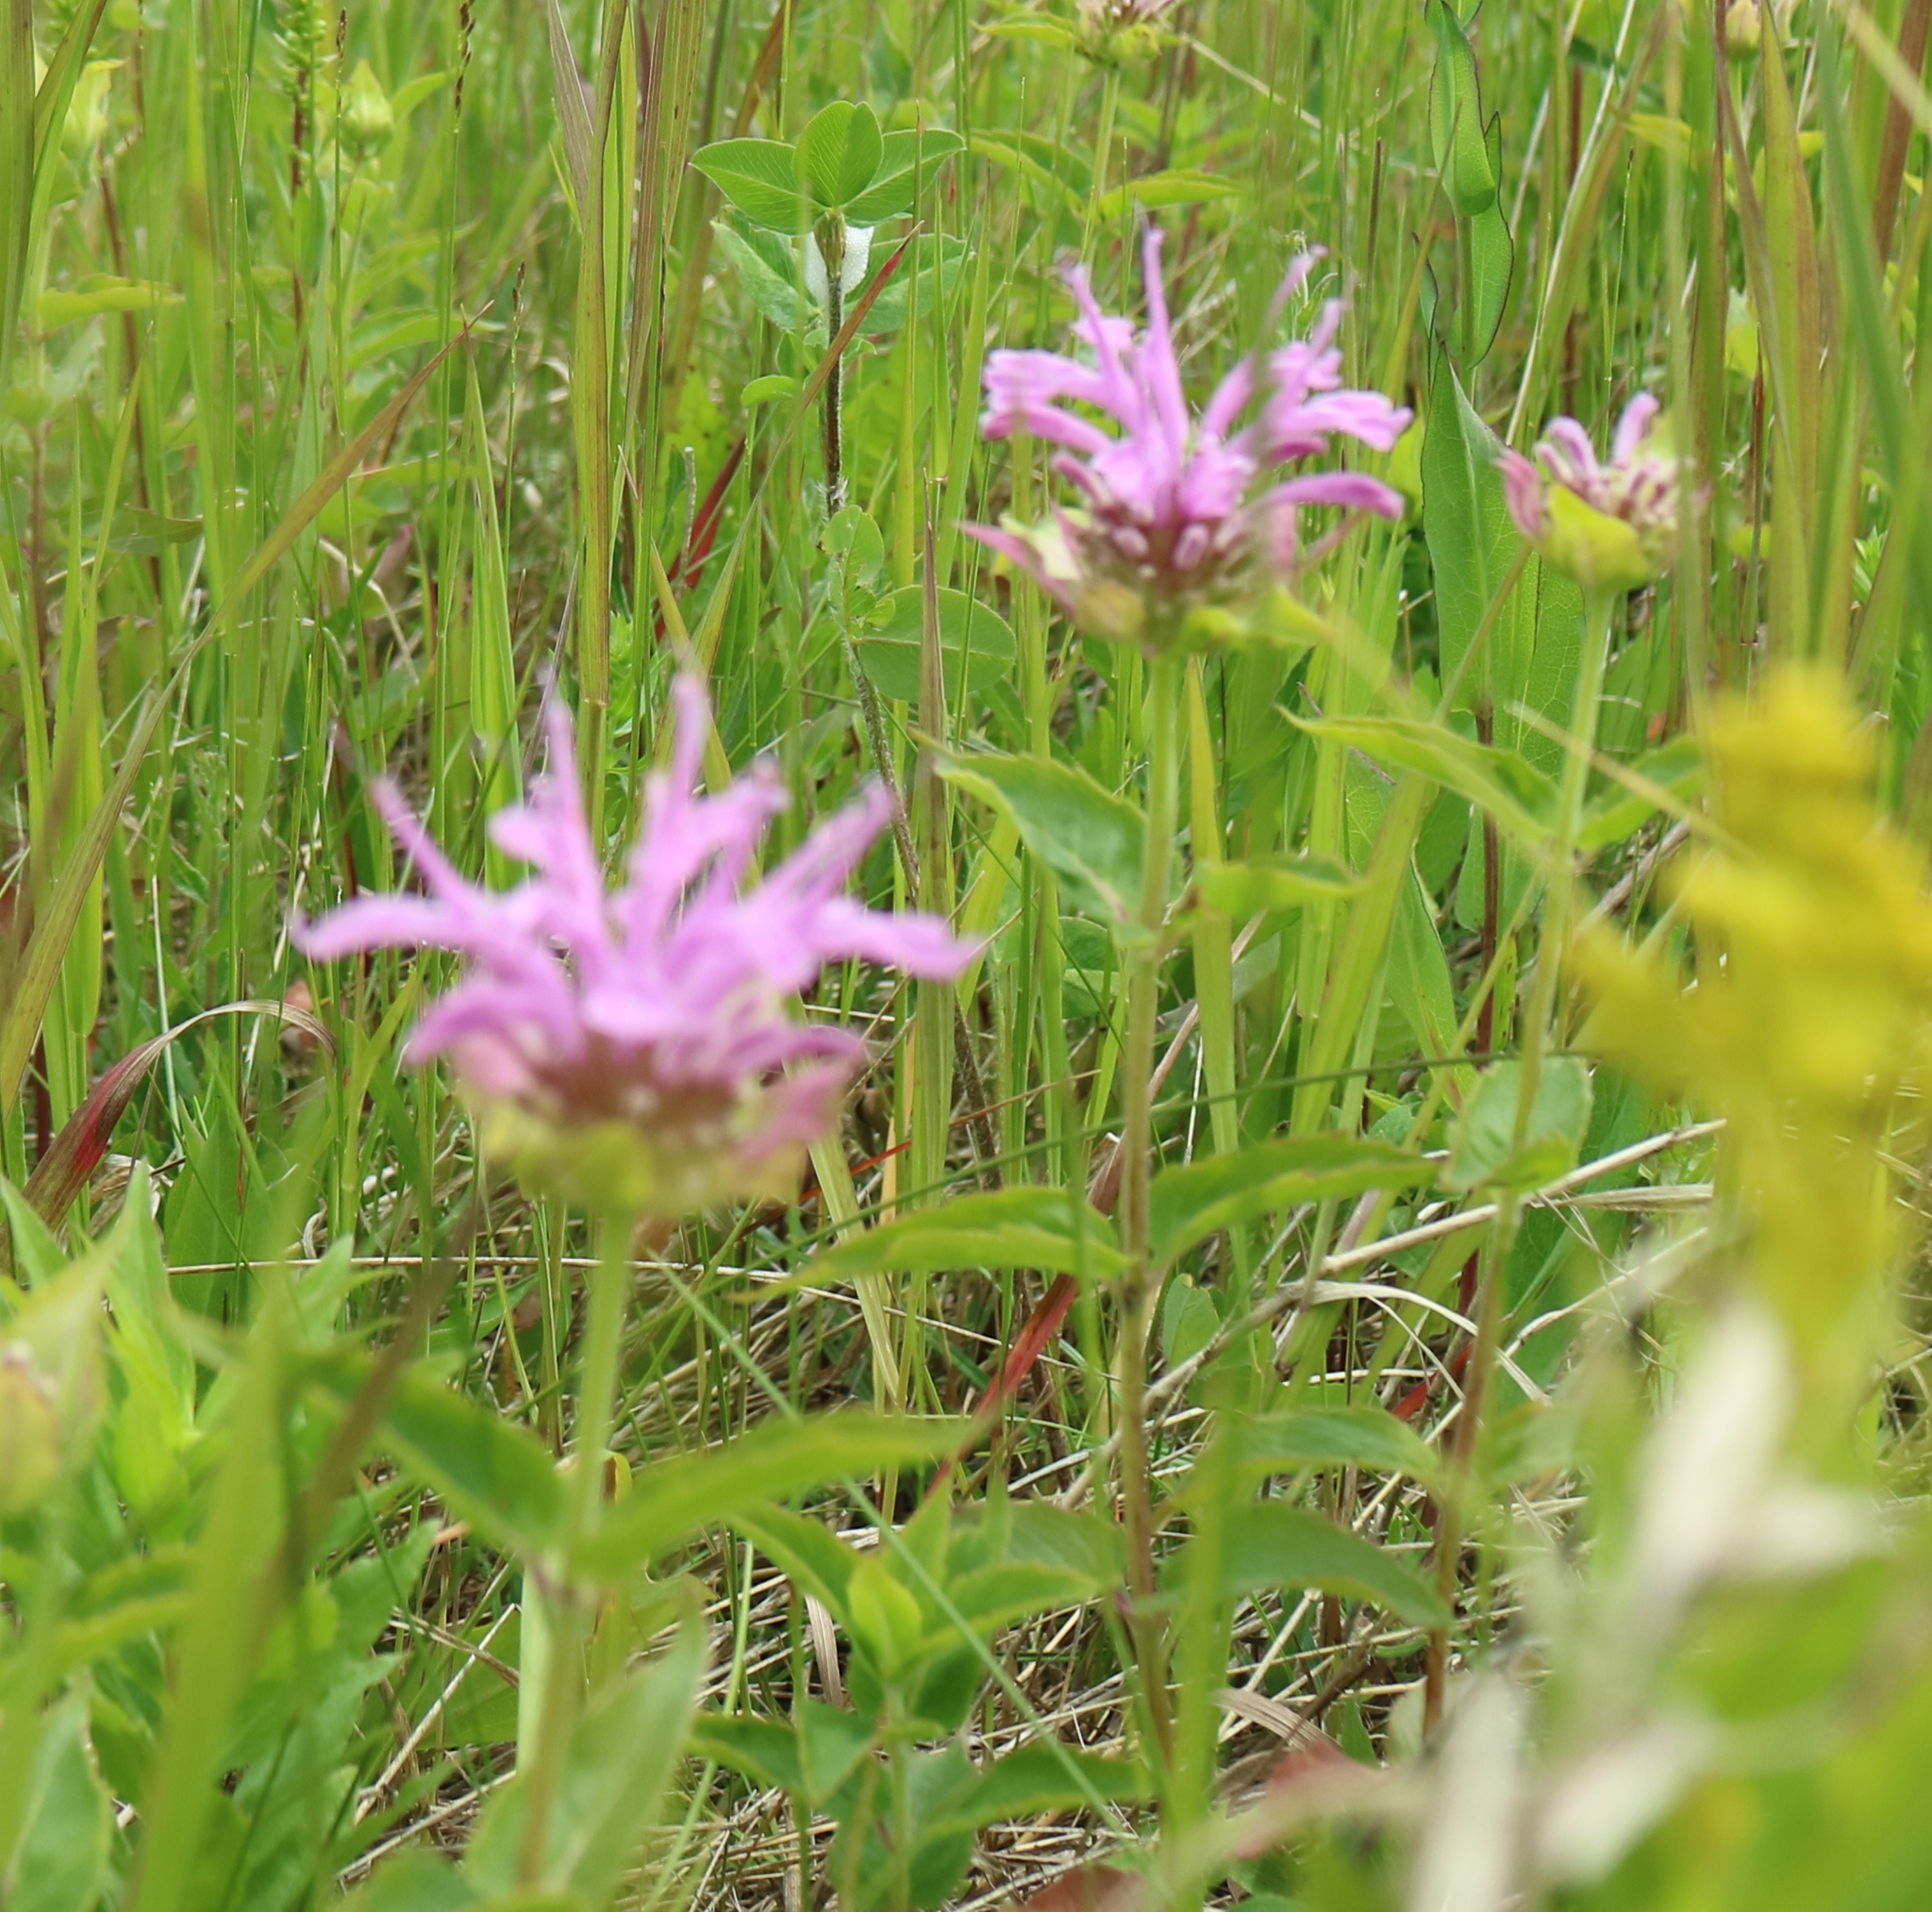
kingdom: Plantae
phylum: Tracheophyta
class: Magnoliopsida
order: Lamiales
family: Lamiaceae
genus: Monarda
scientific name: Monarda fistulosa
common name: Purple beebalm
